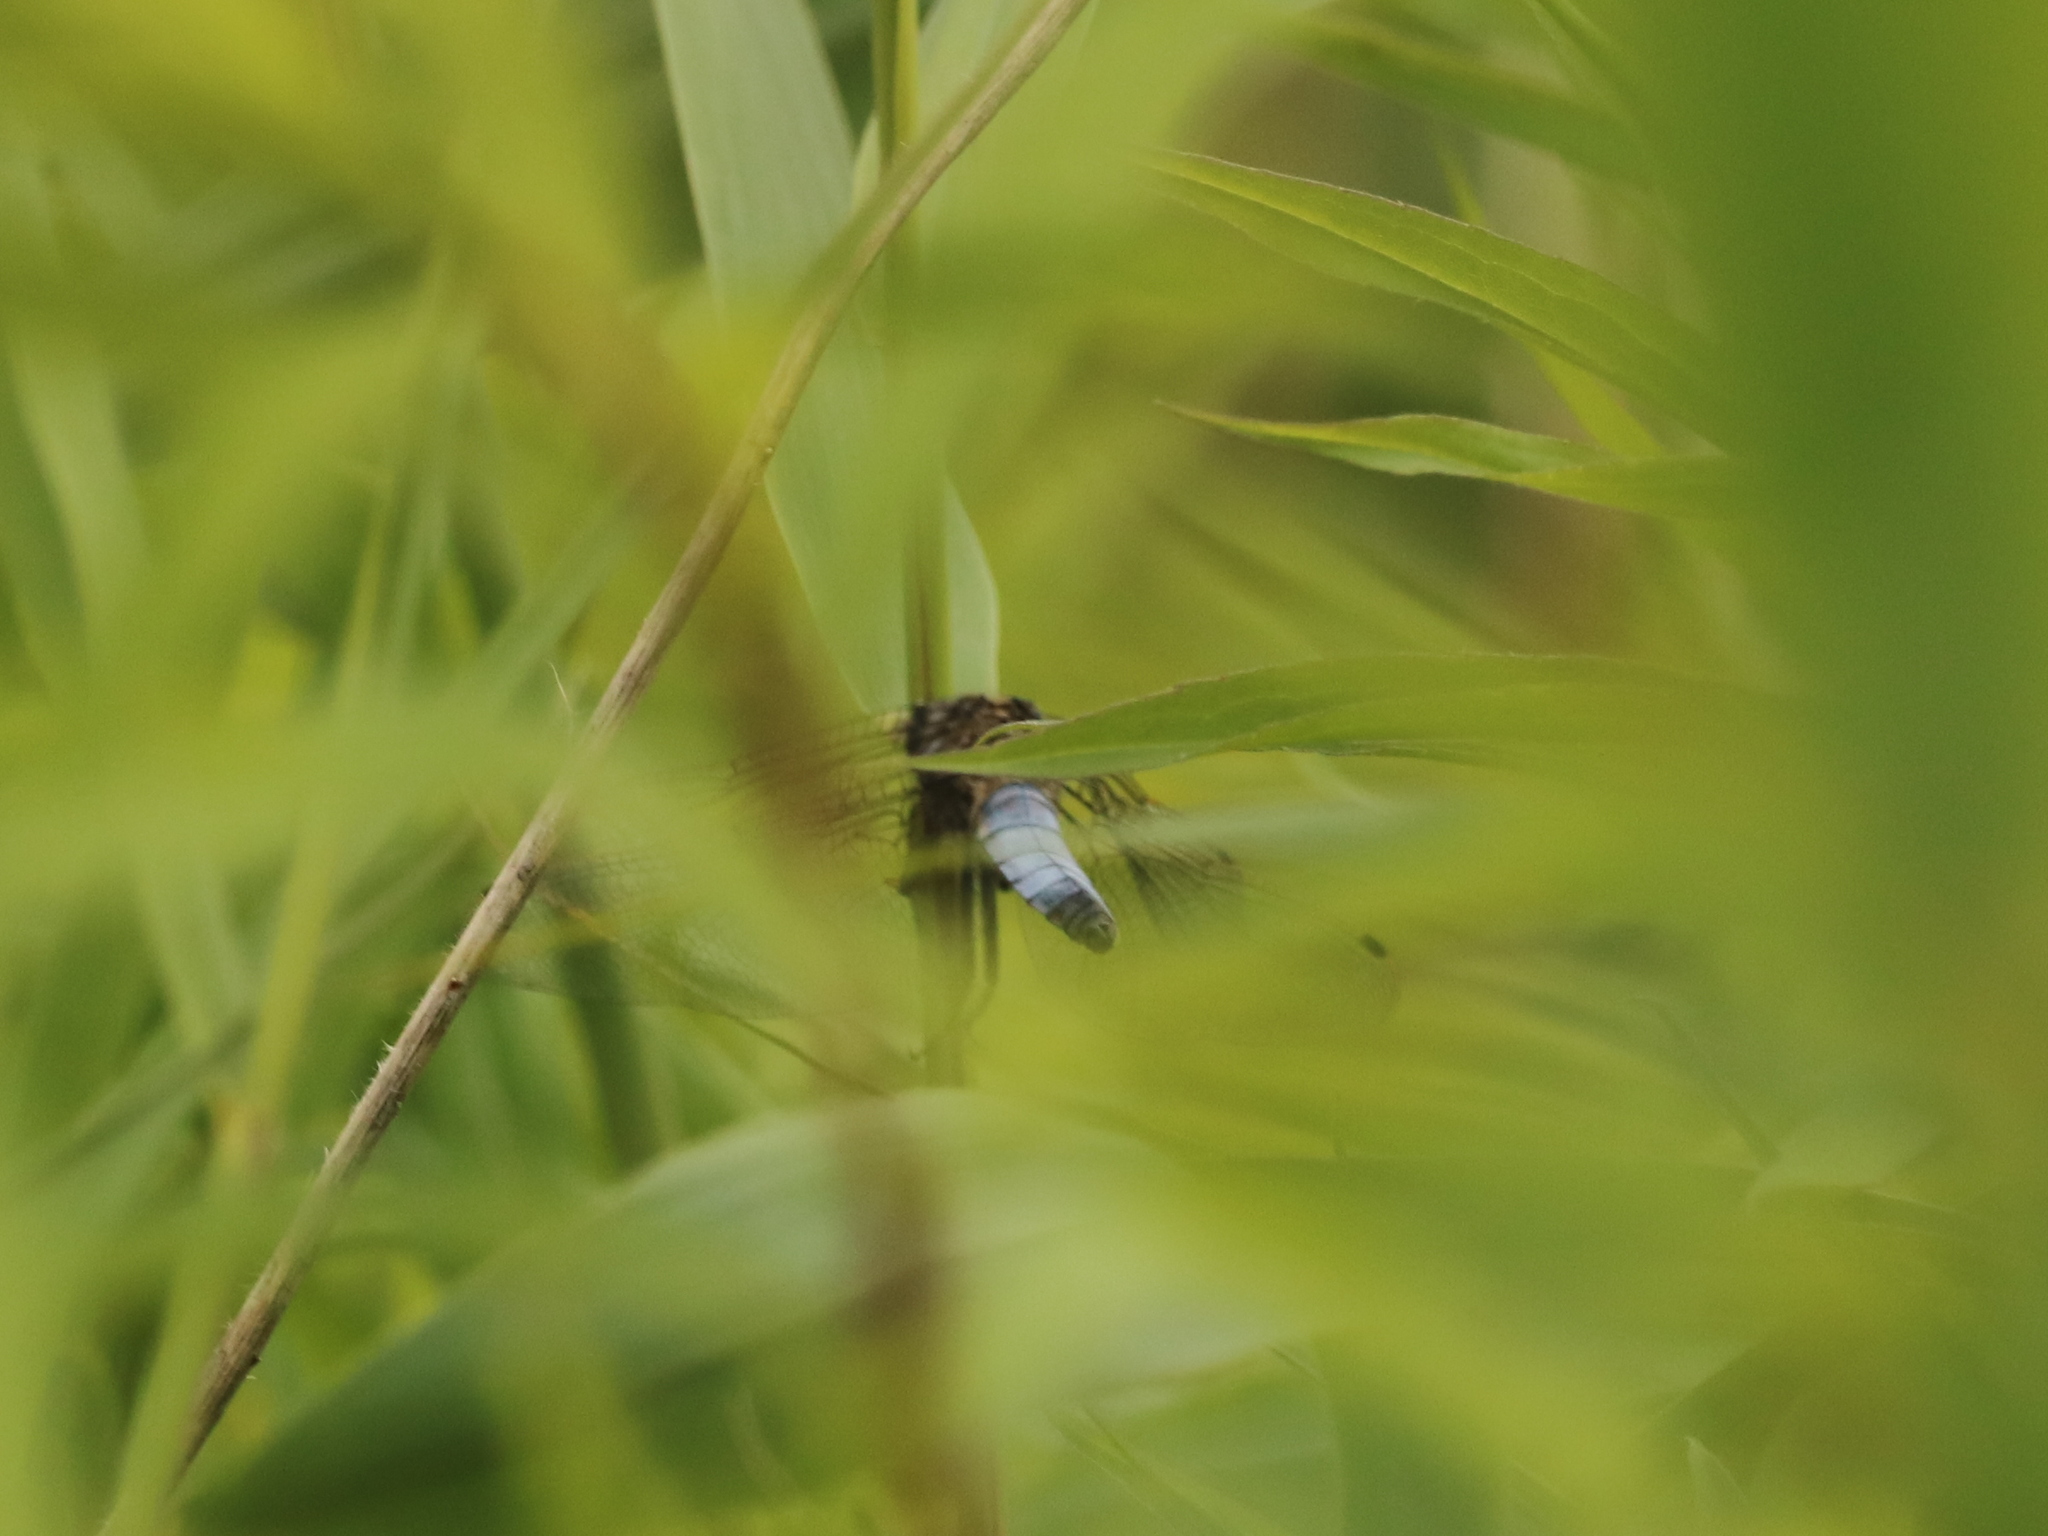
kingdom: Animalia
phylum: Arthropoda
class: Insecta
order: Odonata
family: Libellulidae
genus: Orthetrum
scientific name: Orthetrum cancellatum
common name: Black-tailed skimmer
